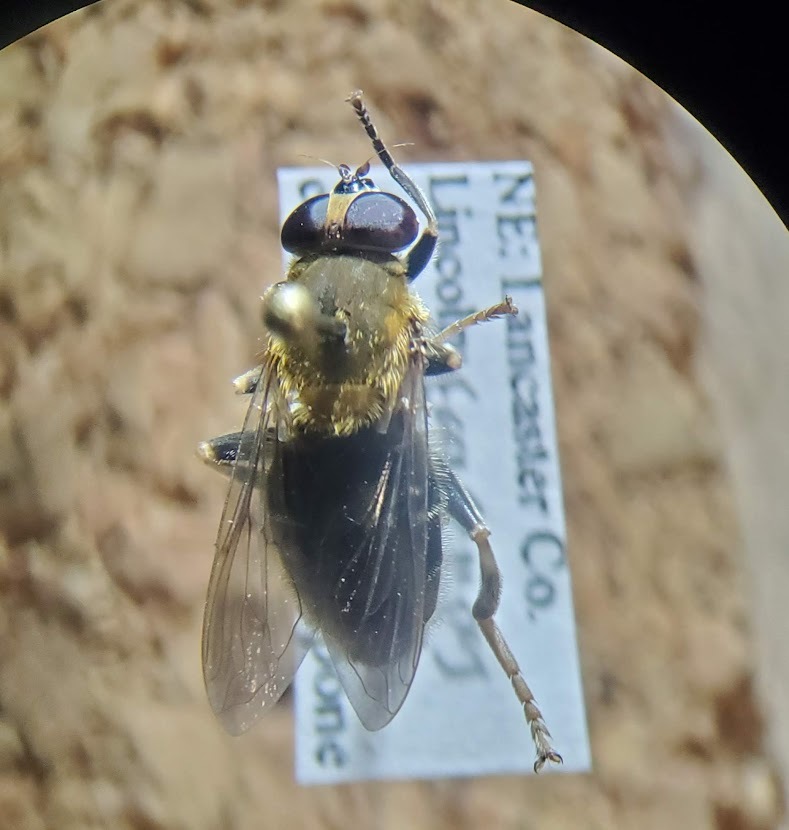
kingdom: Animalia
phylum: Arthropoda
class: Insecta
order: Diptera
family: Syrphidae
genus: Pterallastes
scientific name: Pterallastes thoracicus
